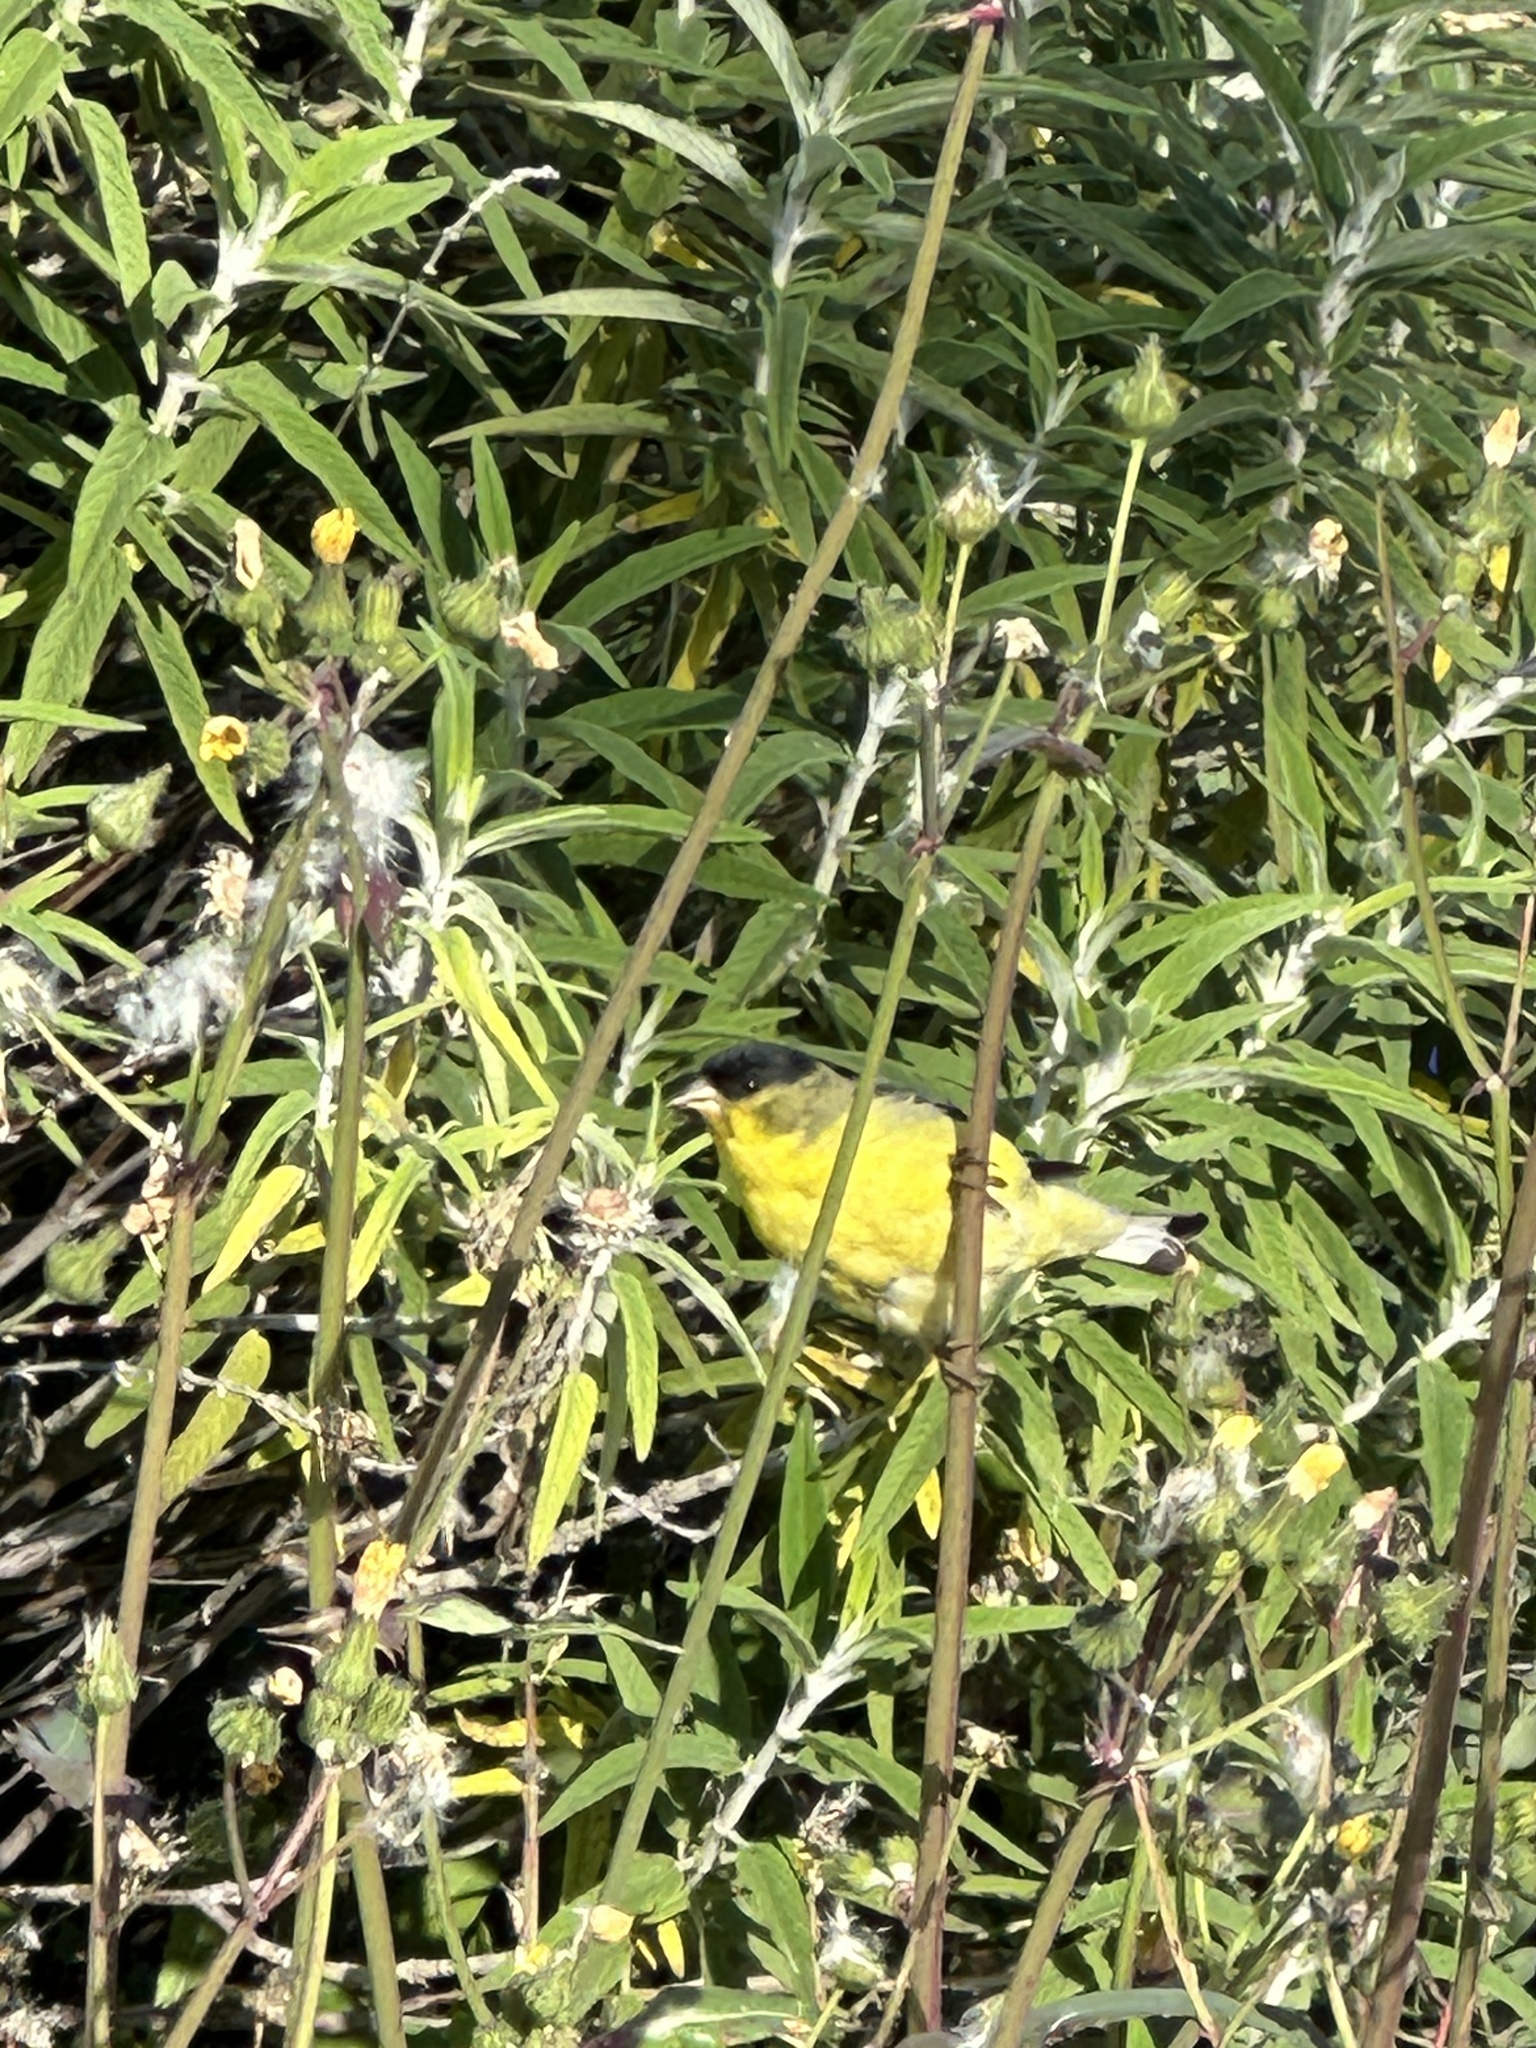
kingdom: Animalia
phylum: Chordata
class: Aves
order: Passeriformes
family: Fringillidae
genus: Spinus
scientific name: Spinus psaltria
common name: Lesser goldfinch
